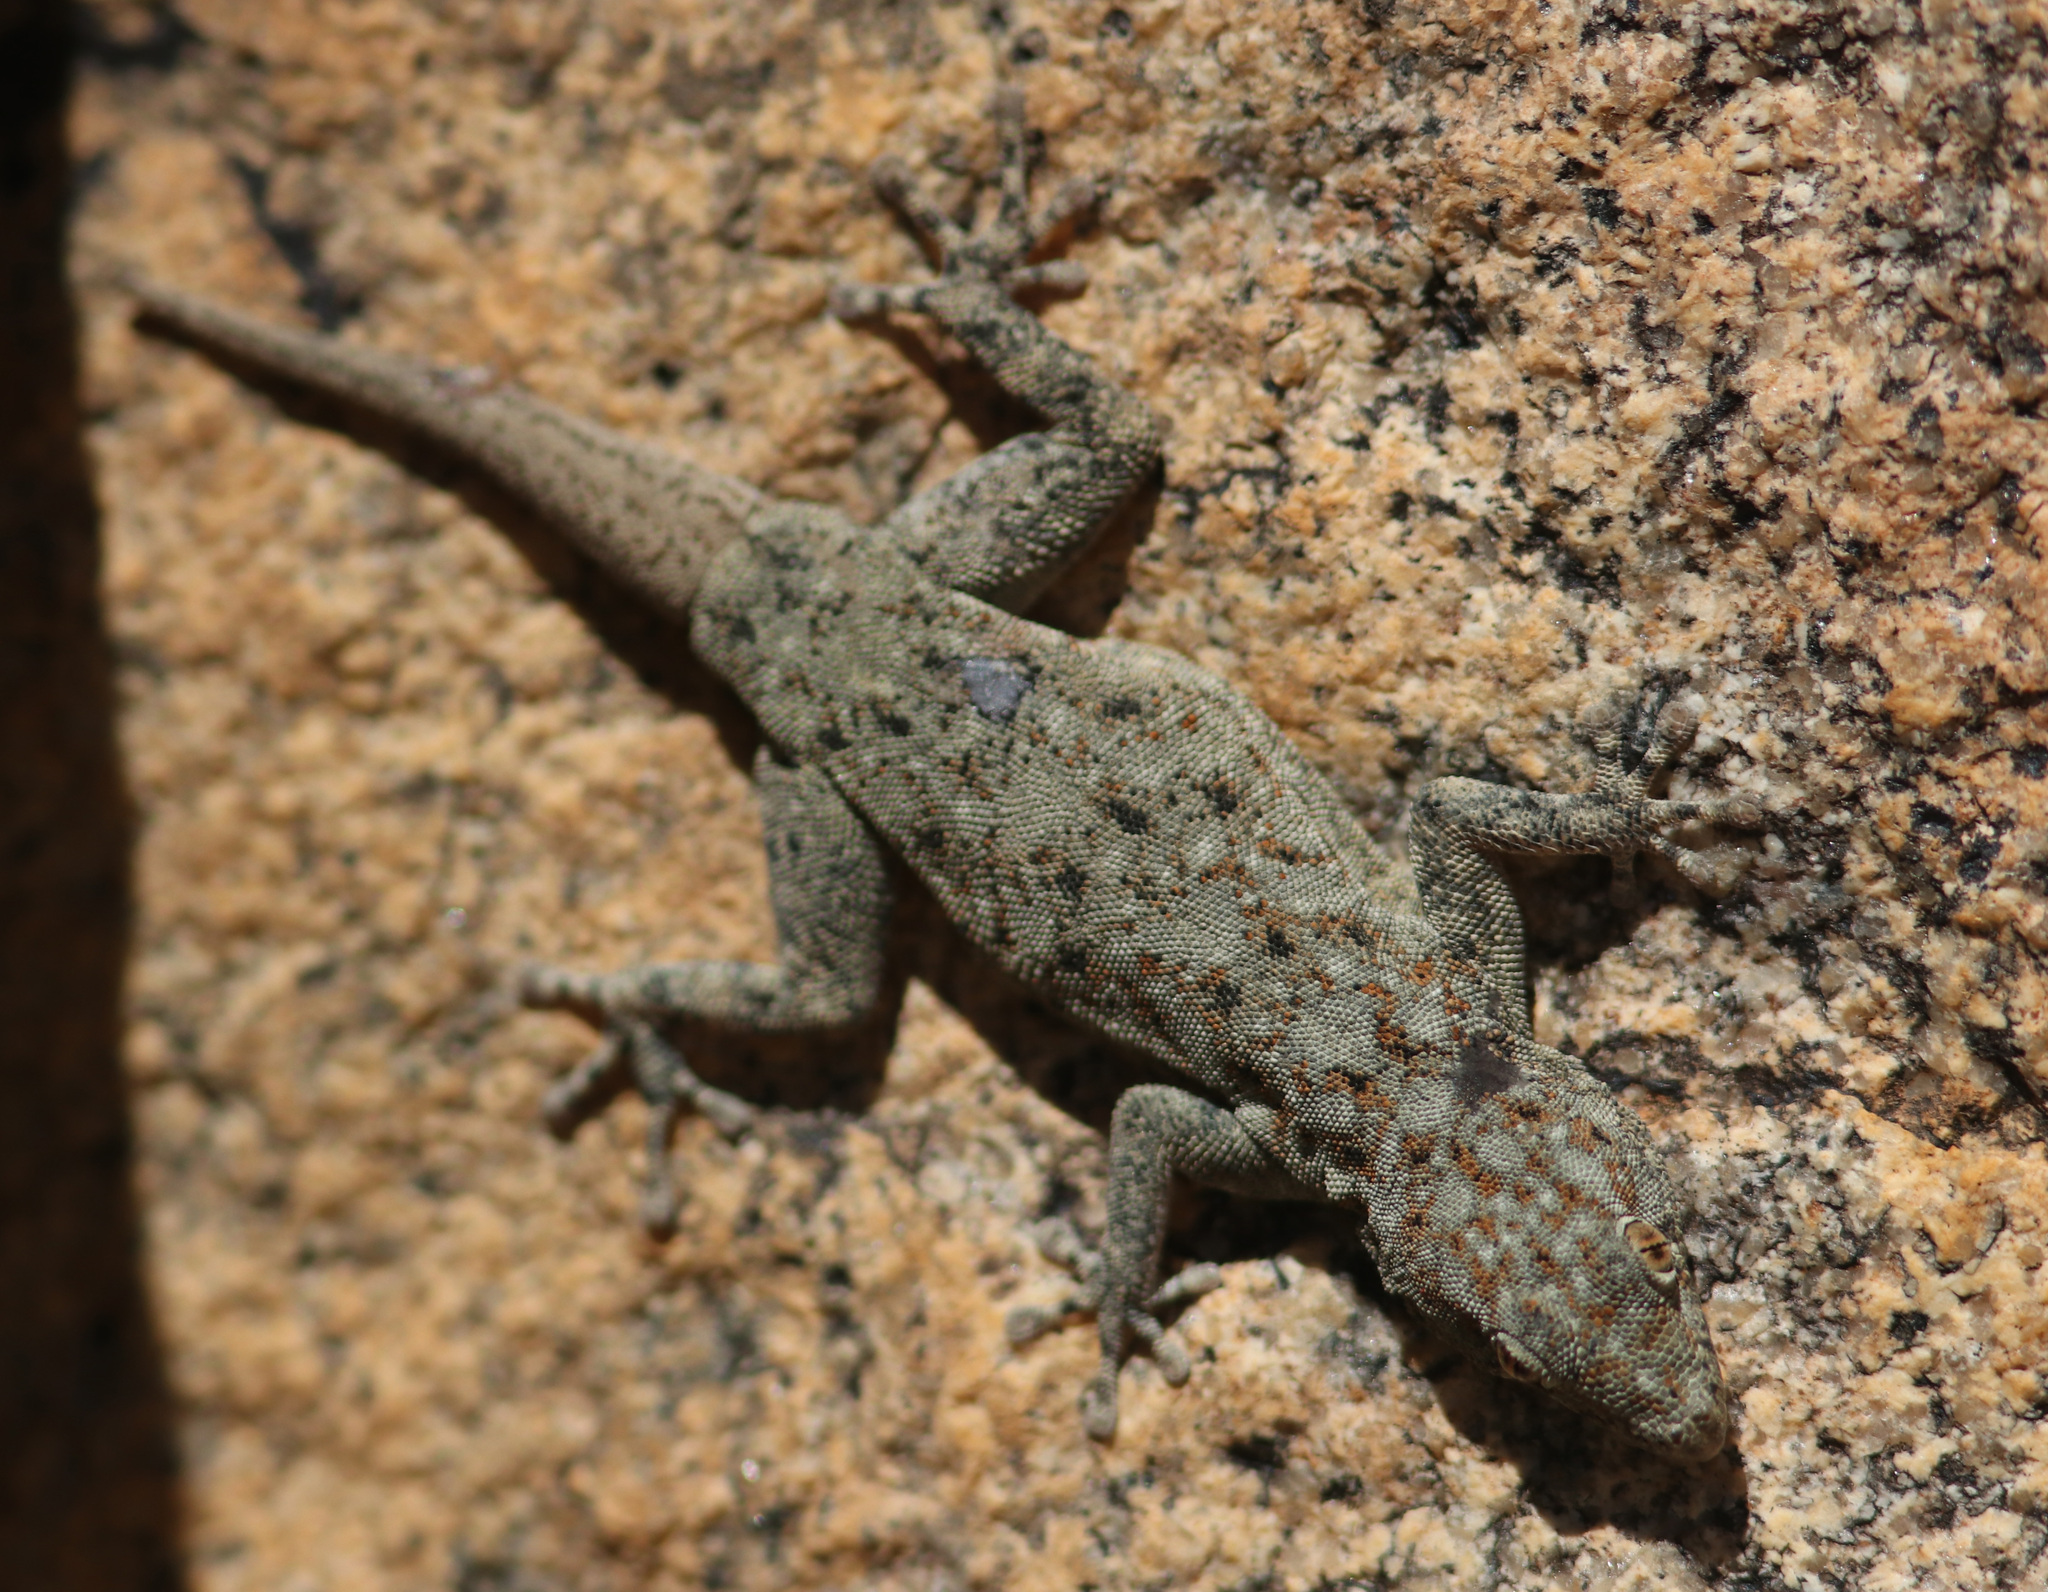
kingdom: Animalia
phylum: Chordata
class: Squamata
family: Gekkonidae
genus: Rhoptropus
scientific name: Rhoptropus barnardi
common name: Barnard’s namib day gecko
